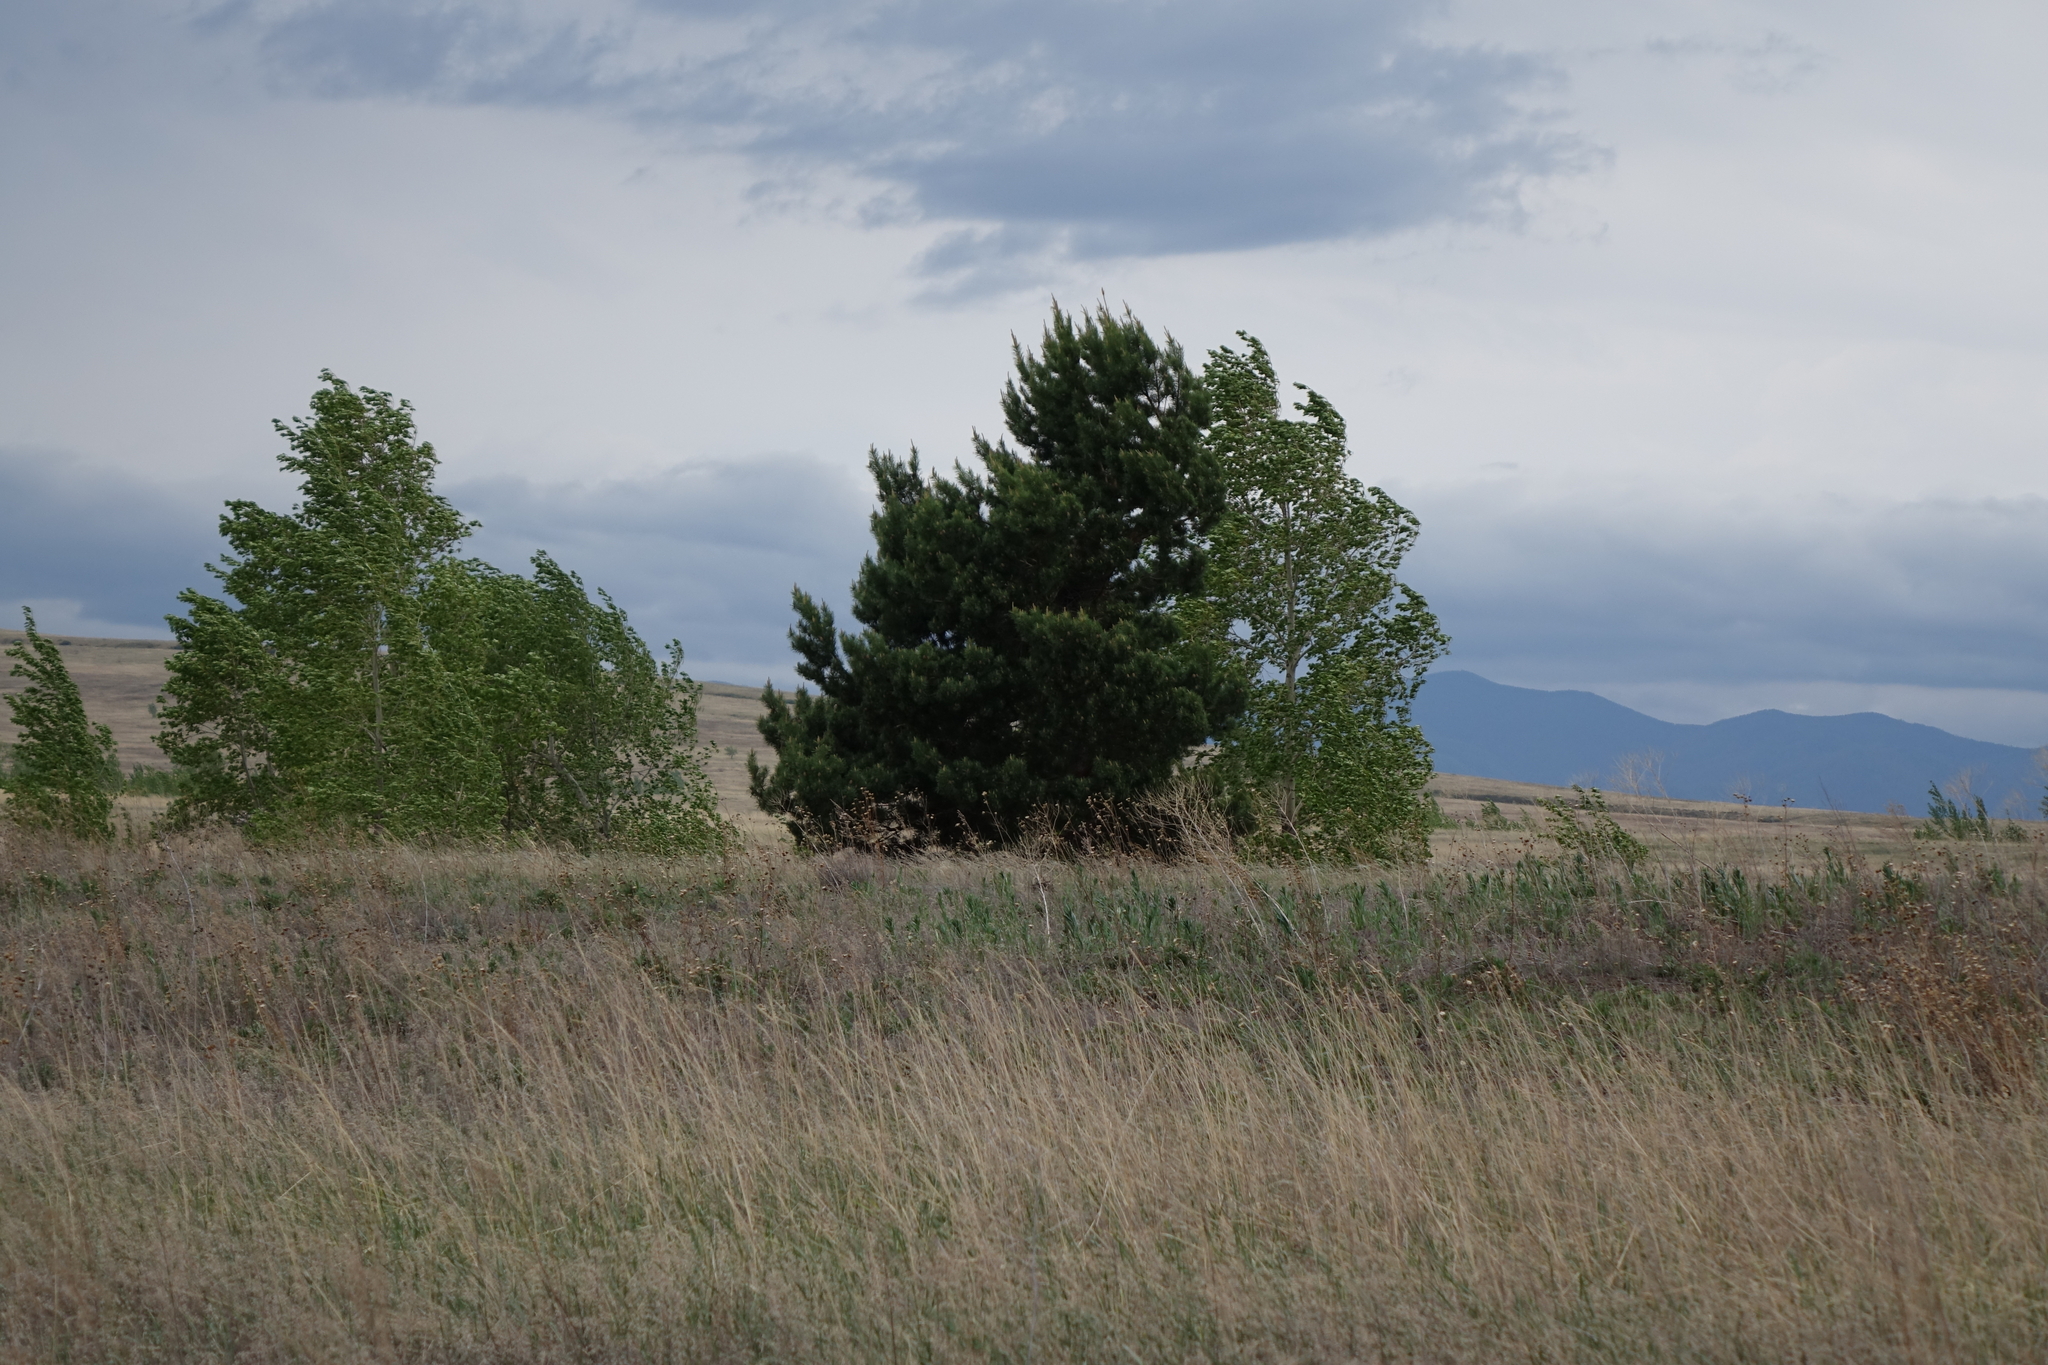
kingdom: Plantae
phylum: Tracheophyta
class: Pinopsida
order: Pinales
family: Pinaceae
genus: Pinus
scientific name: Pinus sylvestris
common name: Scots pine
